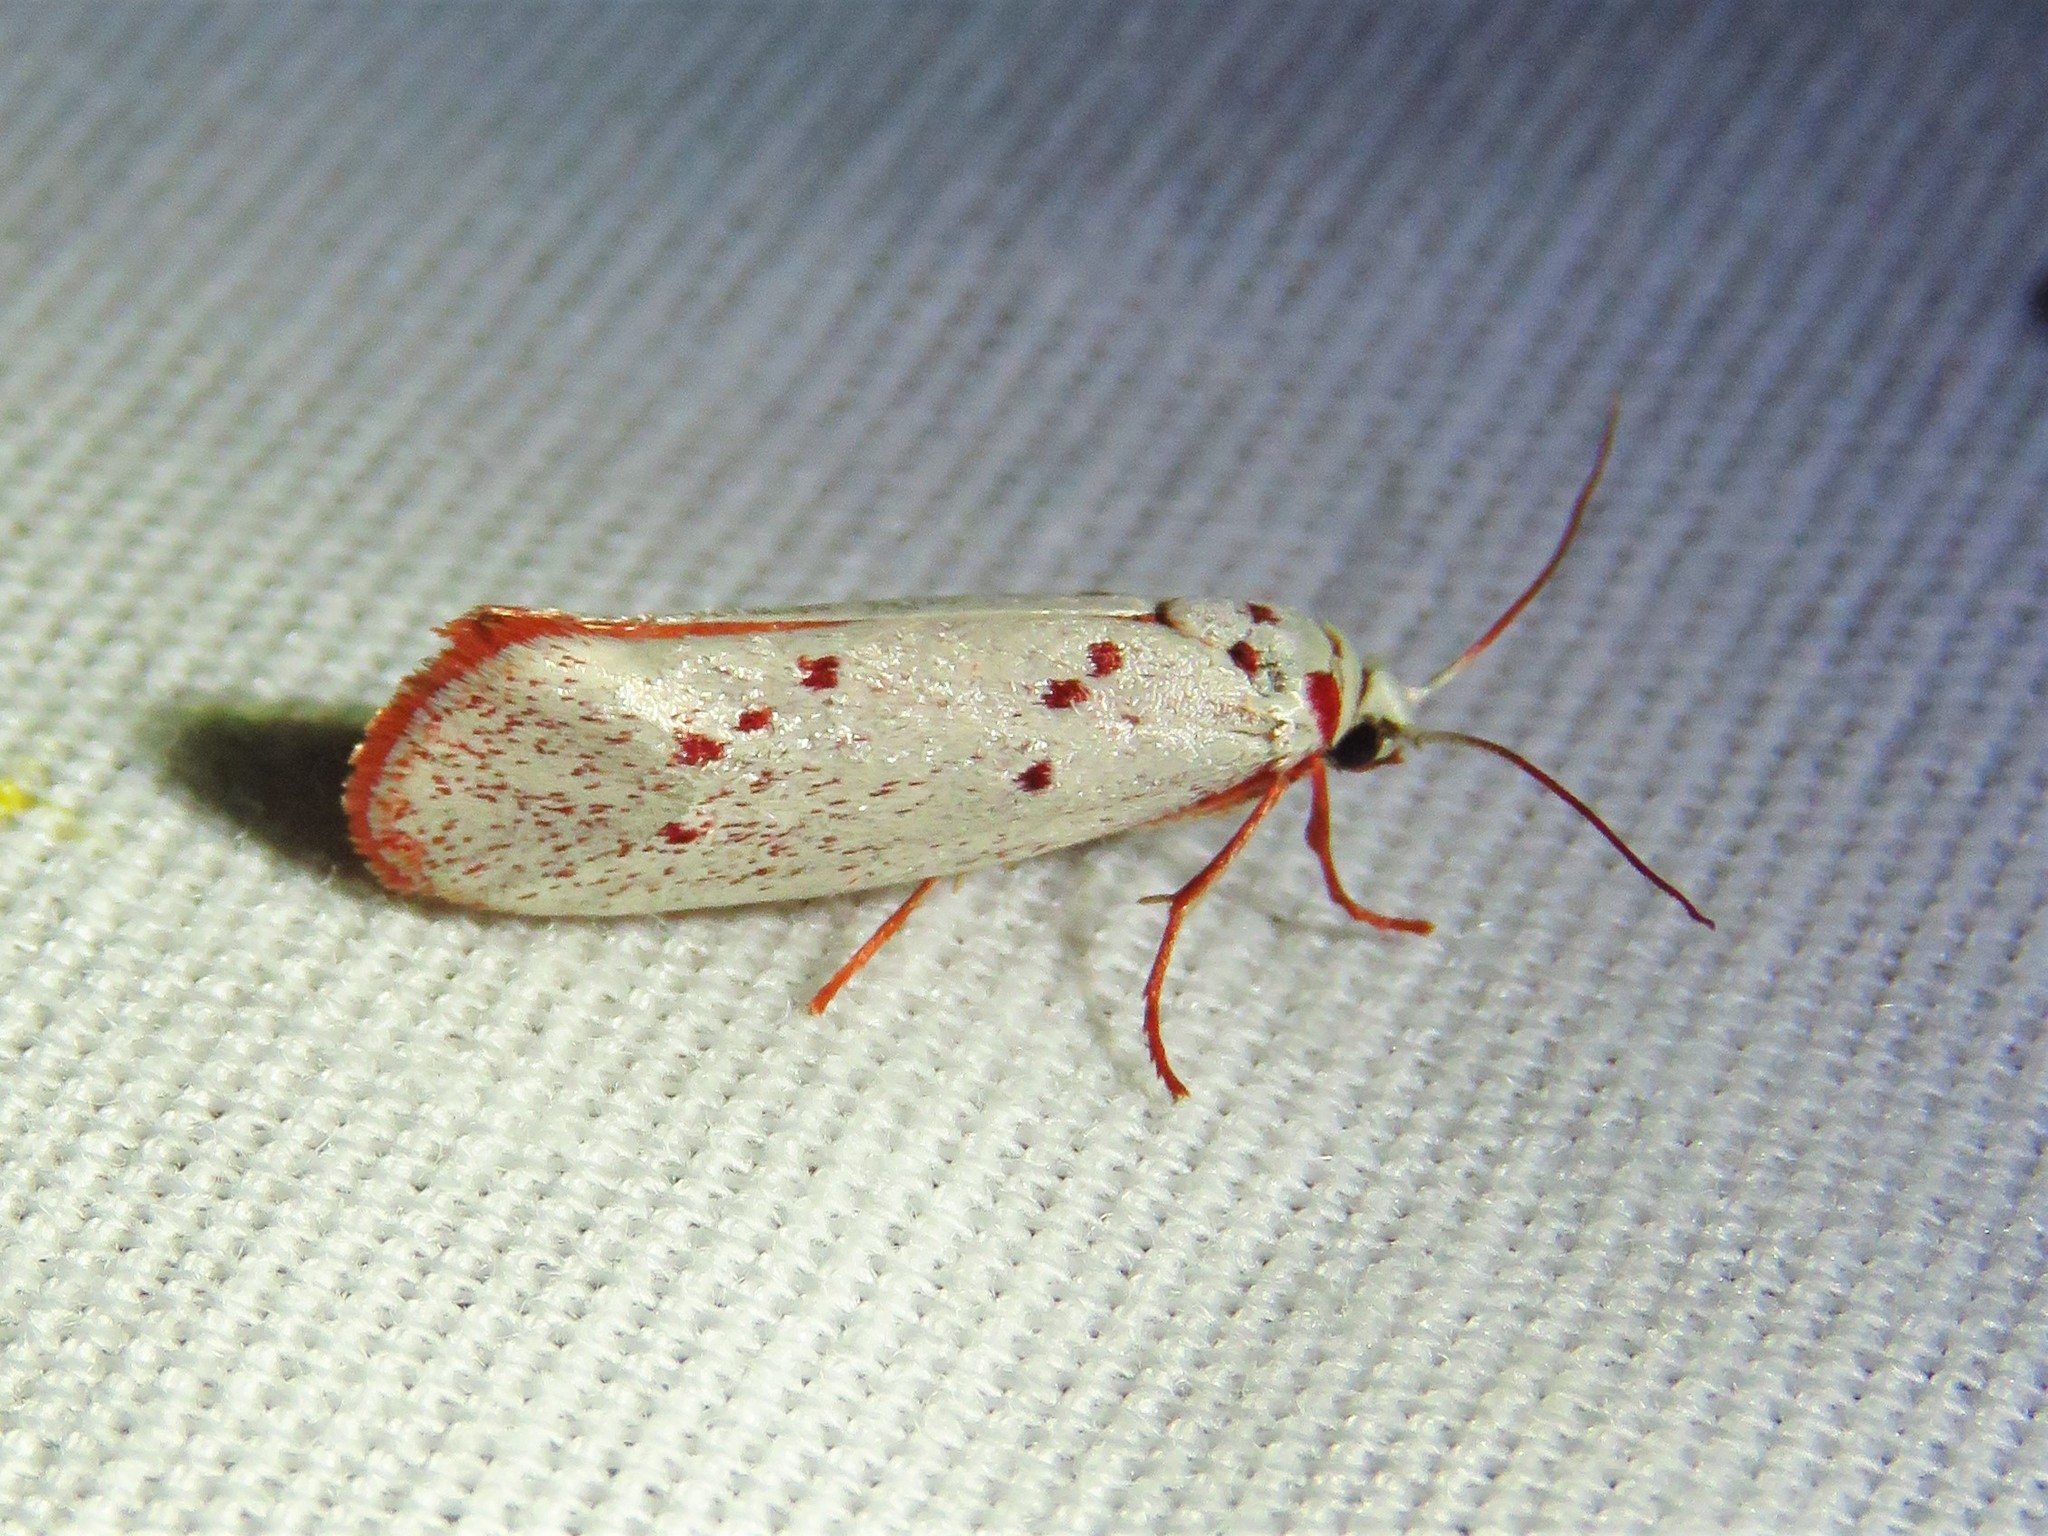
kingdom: Animalia
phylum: Arthropoda
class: Insecta
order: Lepidoptera
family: Lacturidae
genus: Lactura
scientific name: Lactura
